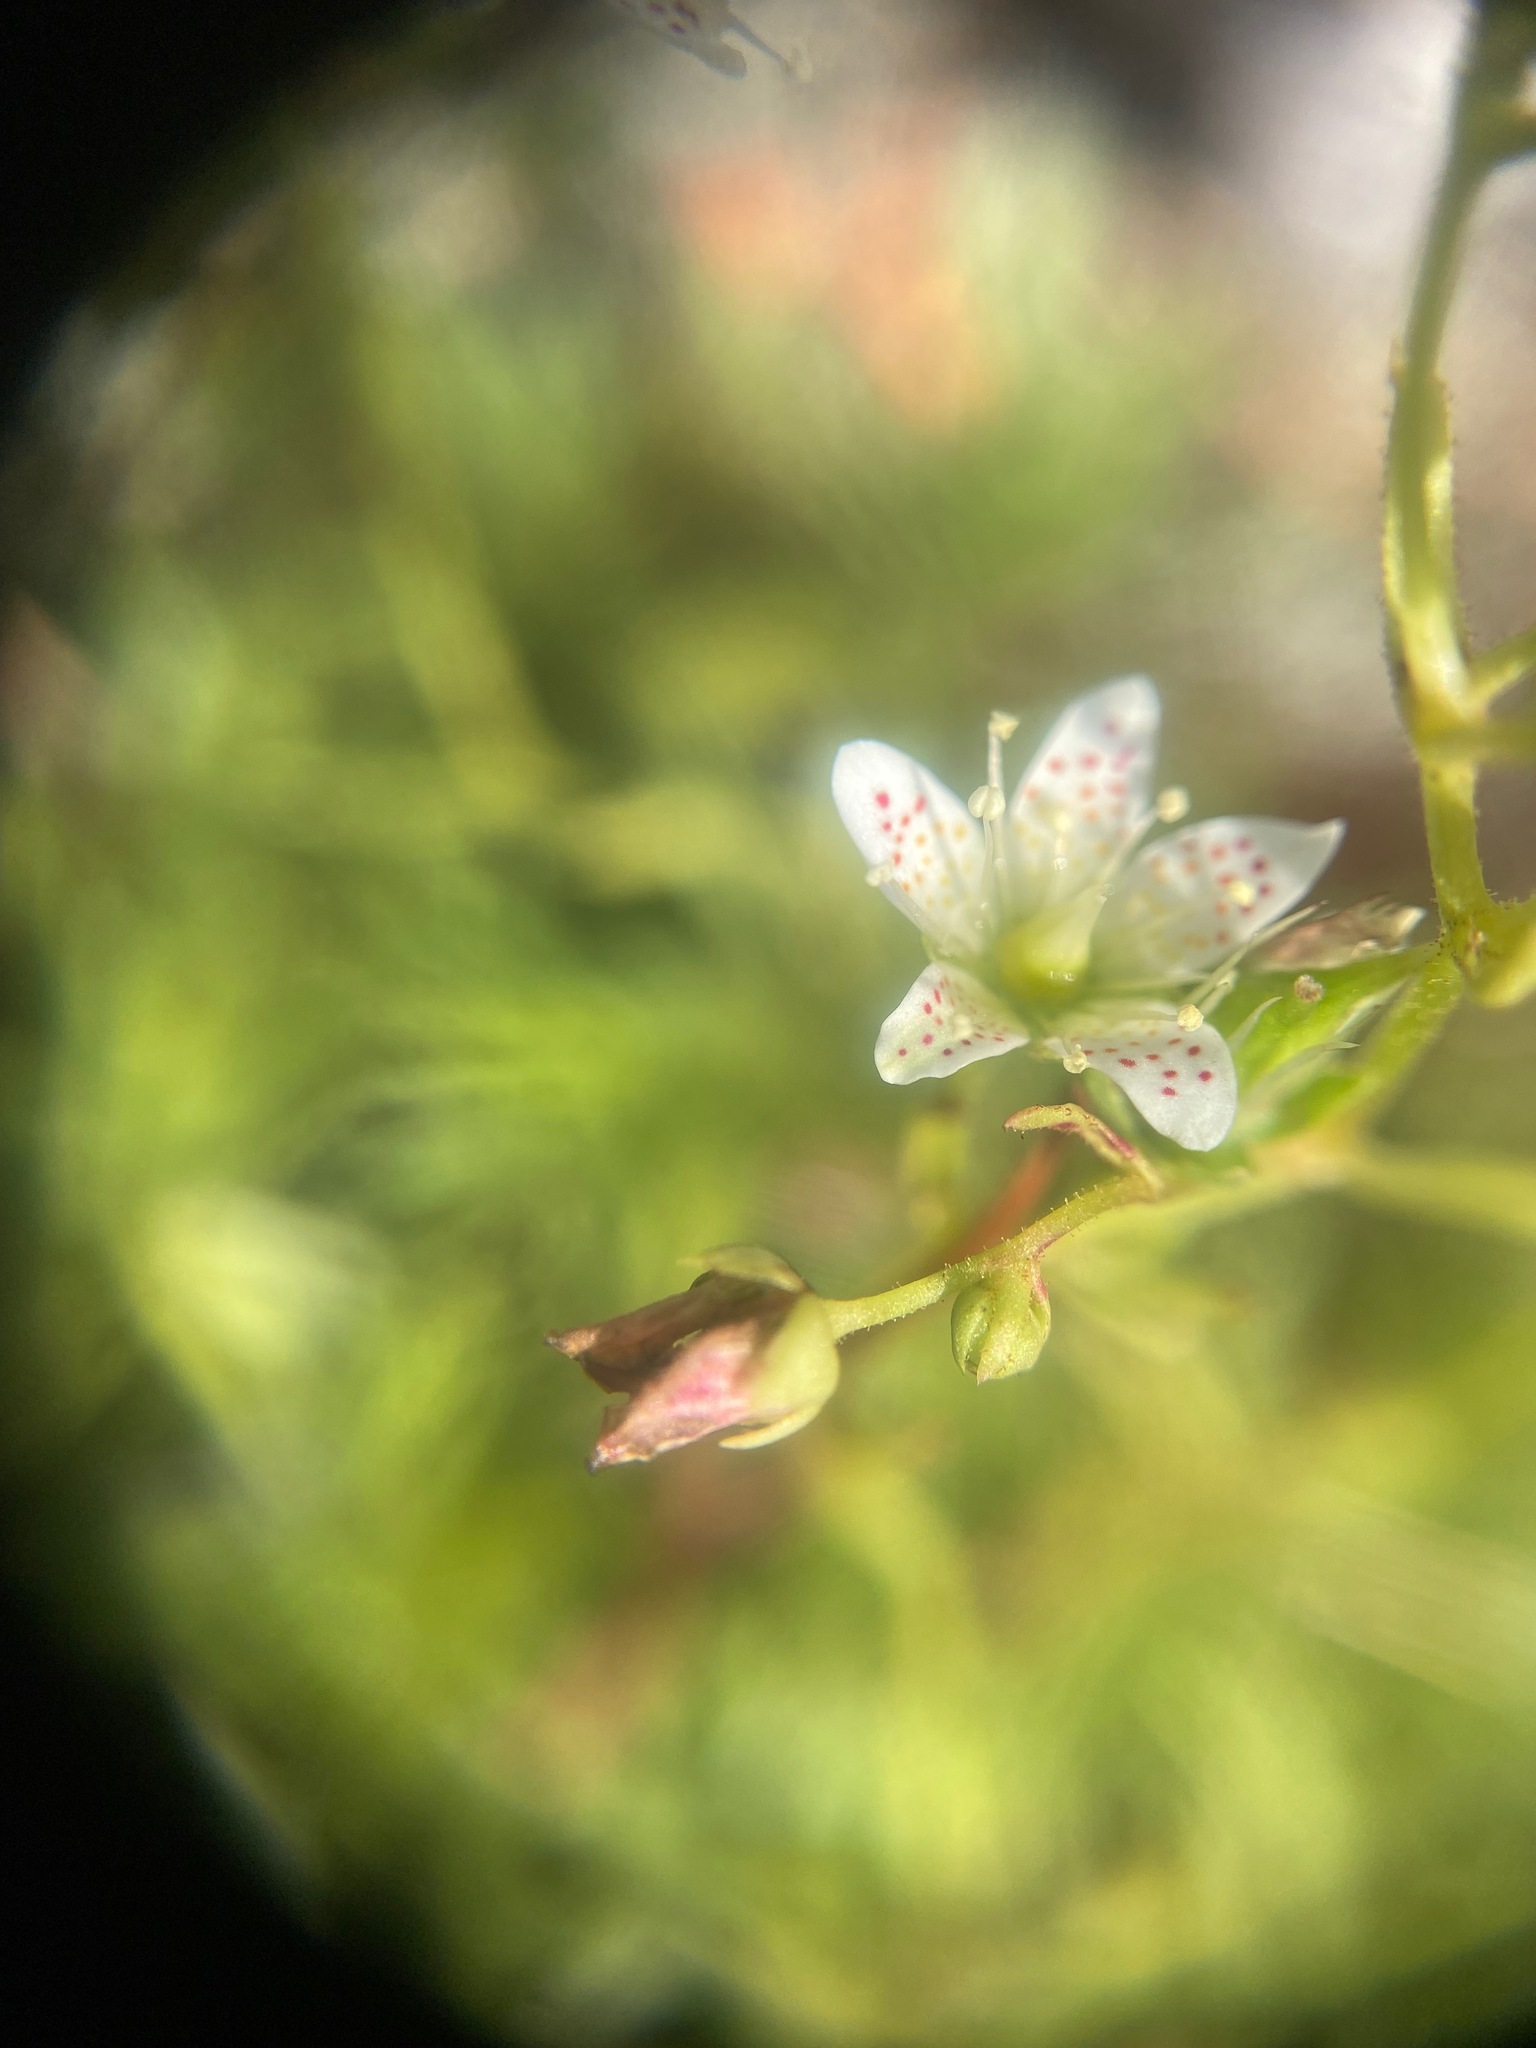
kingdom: Plantae
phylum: Tracheophyta
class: Magnoliopsida
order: Saxifragales
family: Saxifragaceae
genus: Saxifraga
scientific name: Saxifraga tricuspidata
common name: Prickly saxifrage
